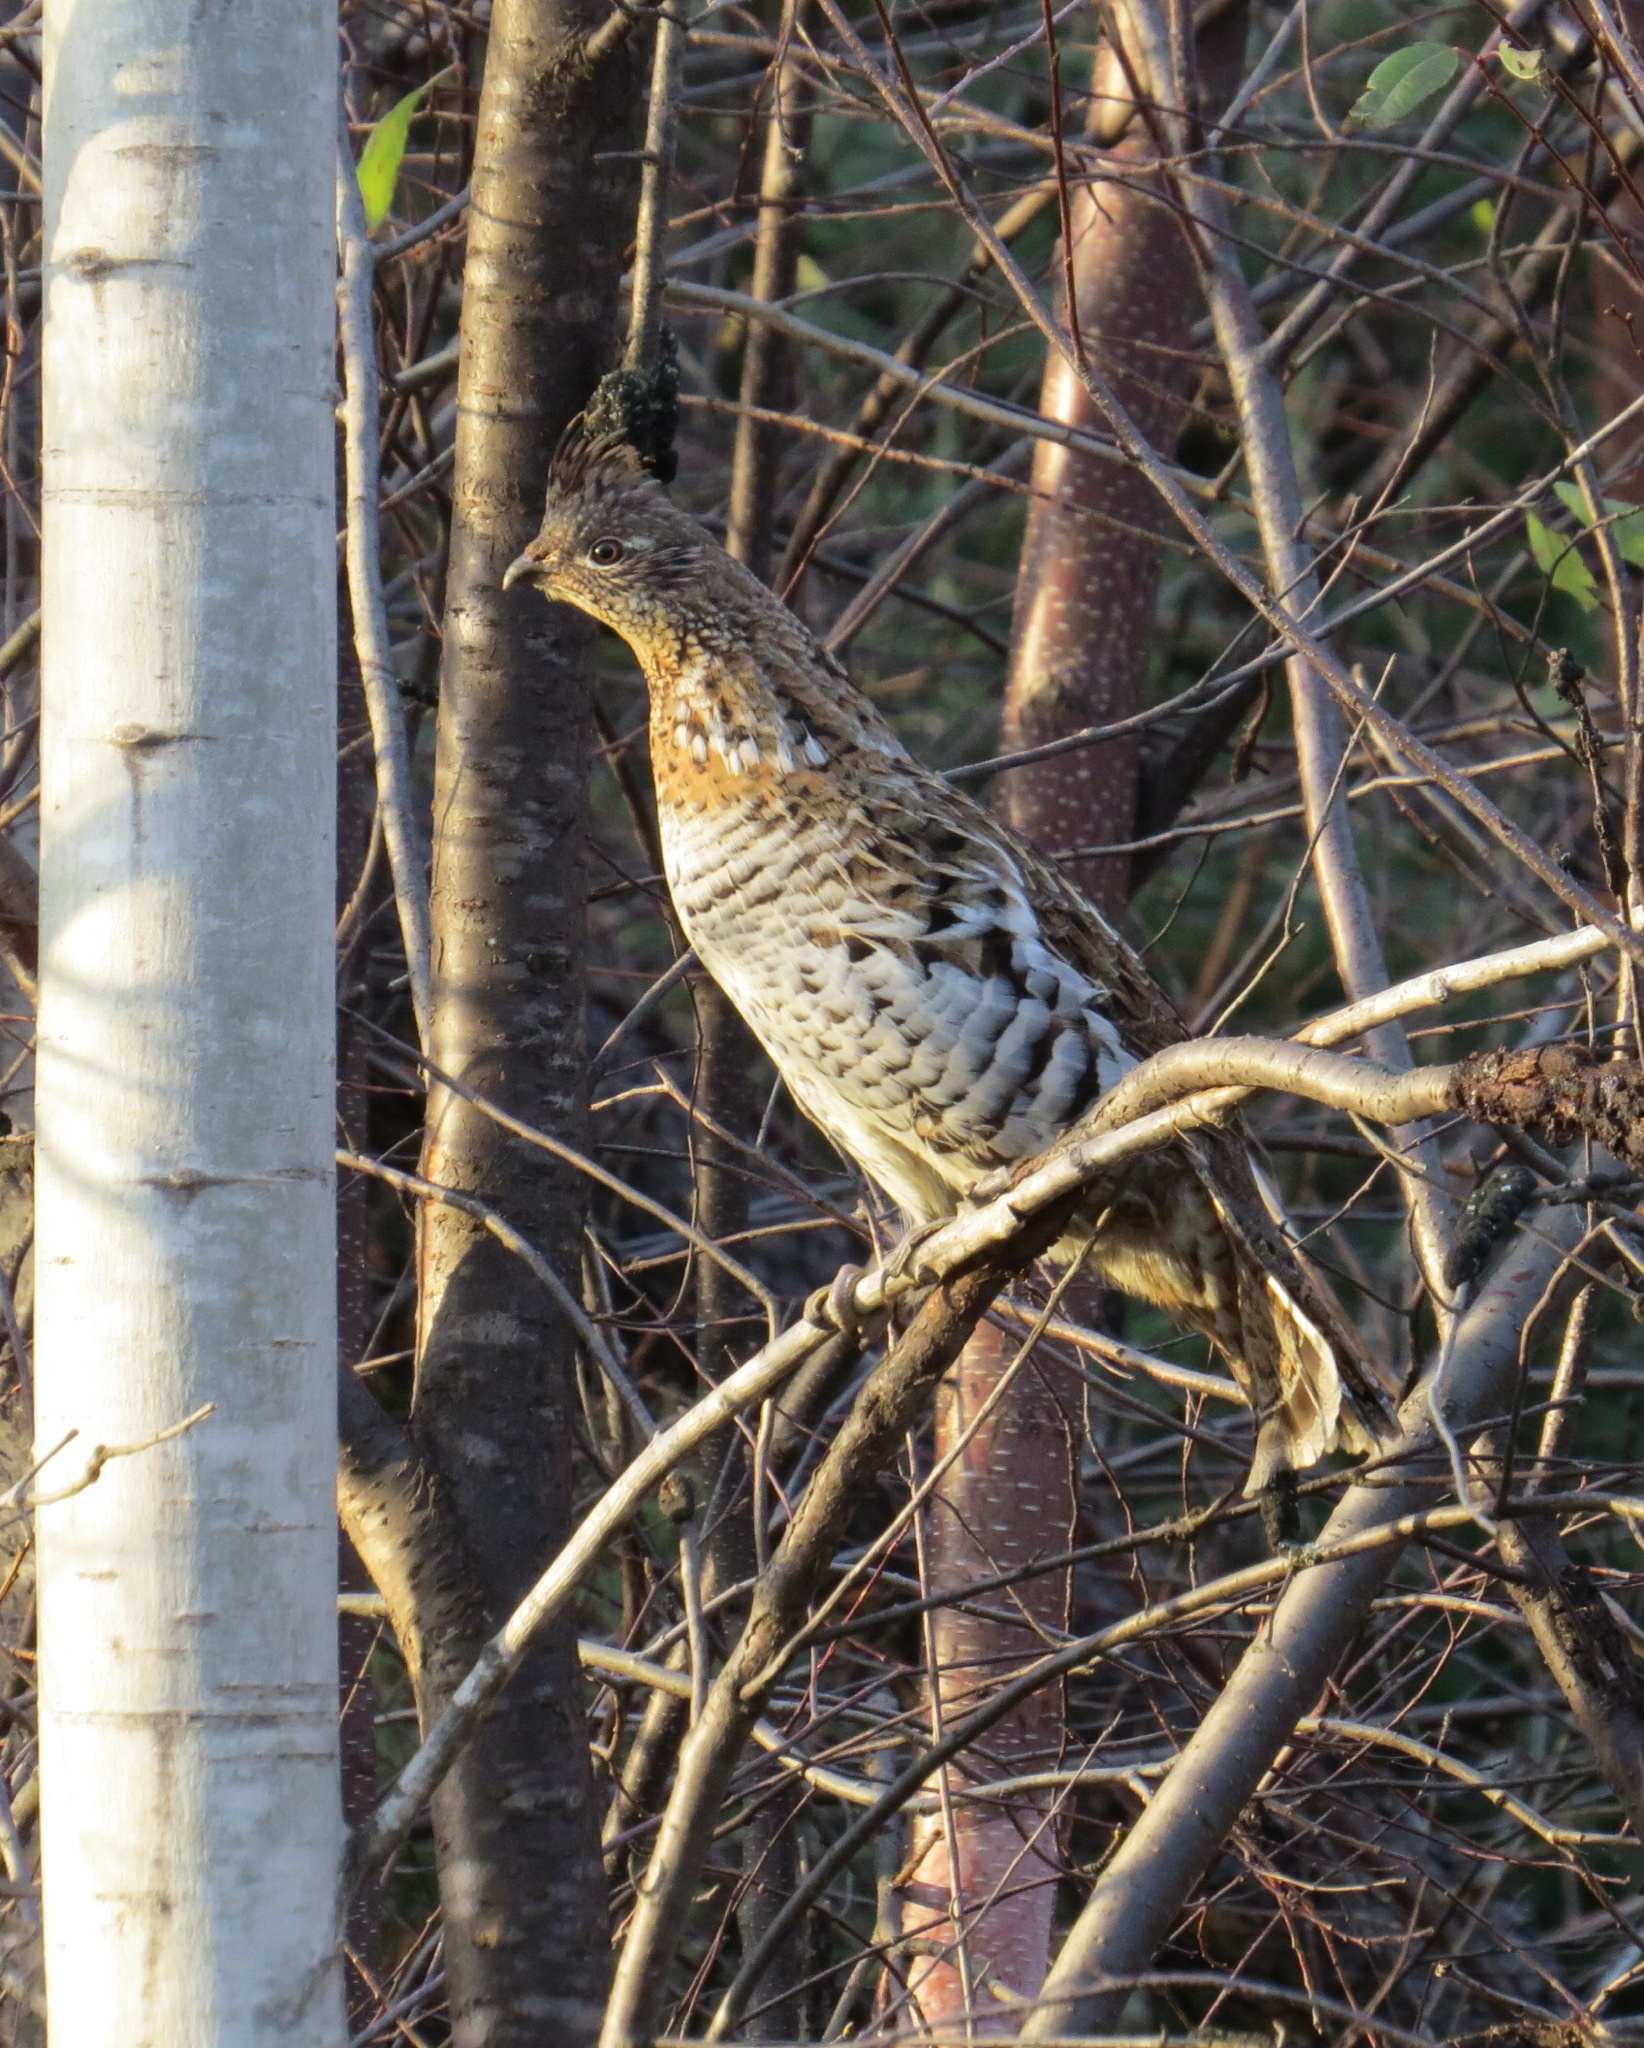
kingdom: Animalia
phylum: Chordata
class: Aves
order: Galliformes
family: Phasianidae
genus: Bonasa
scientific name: Bonasa umbellus
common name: Ruffed grouse
